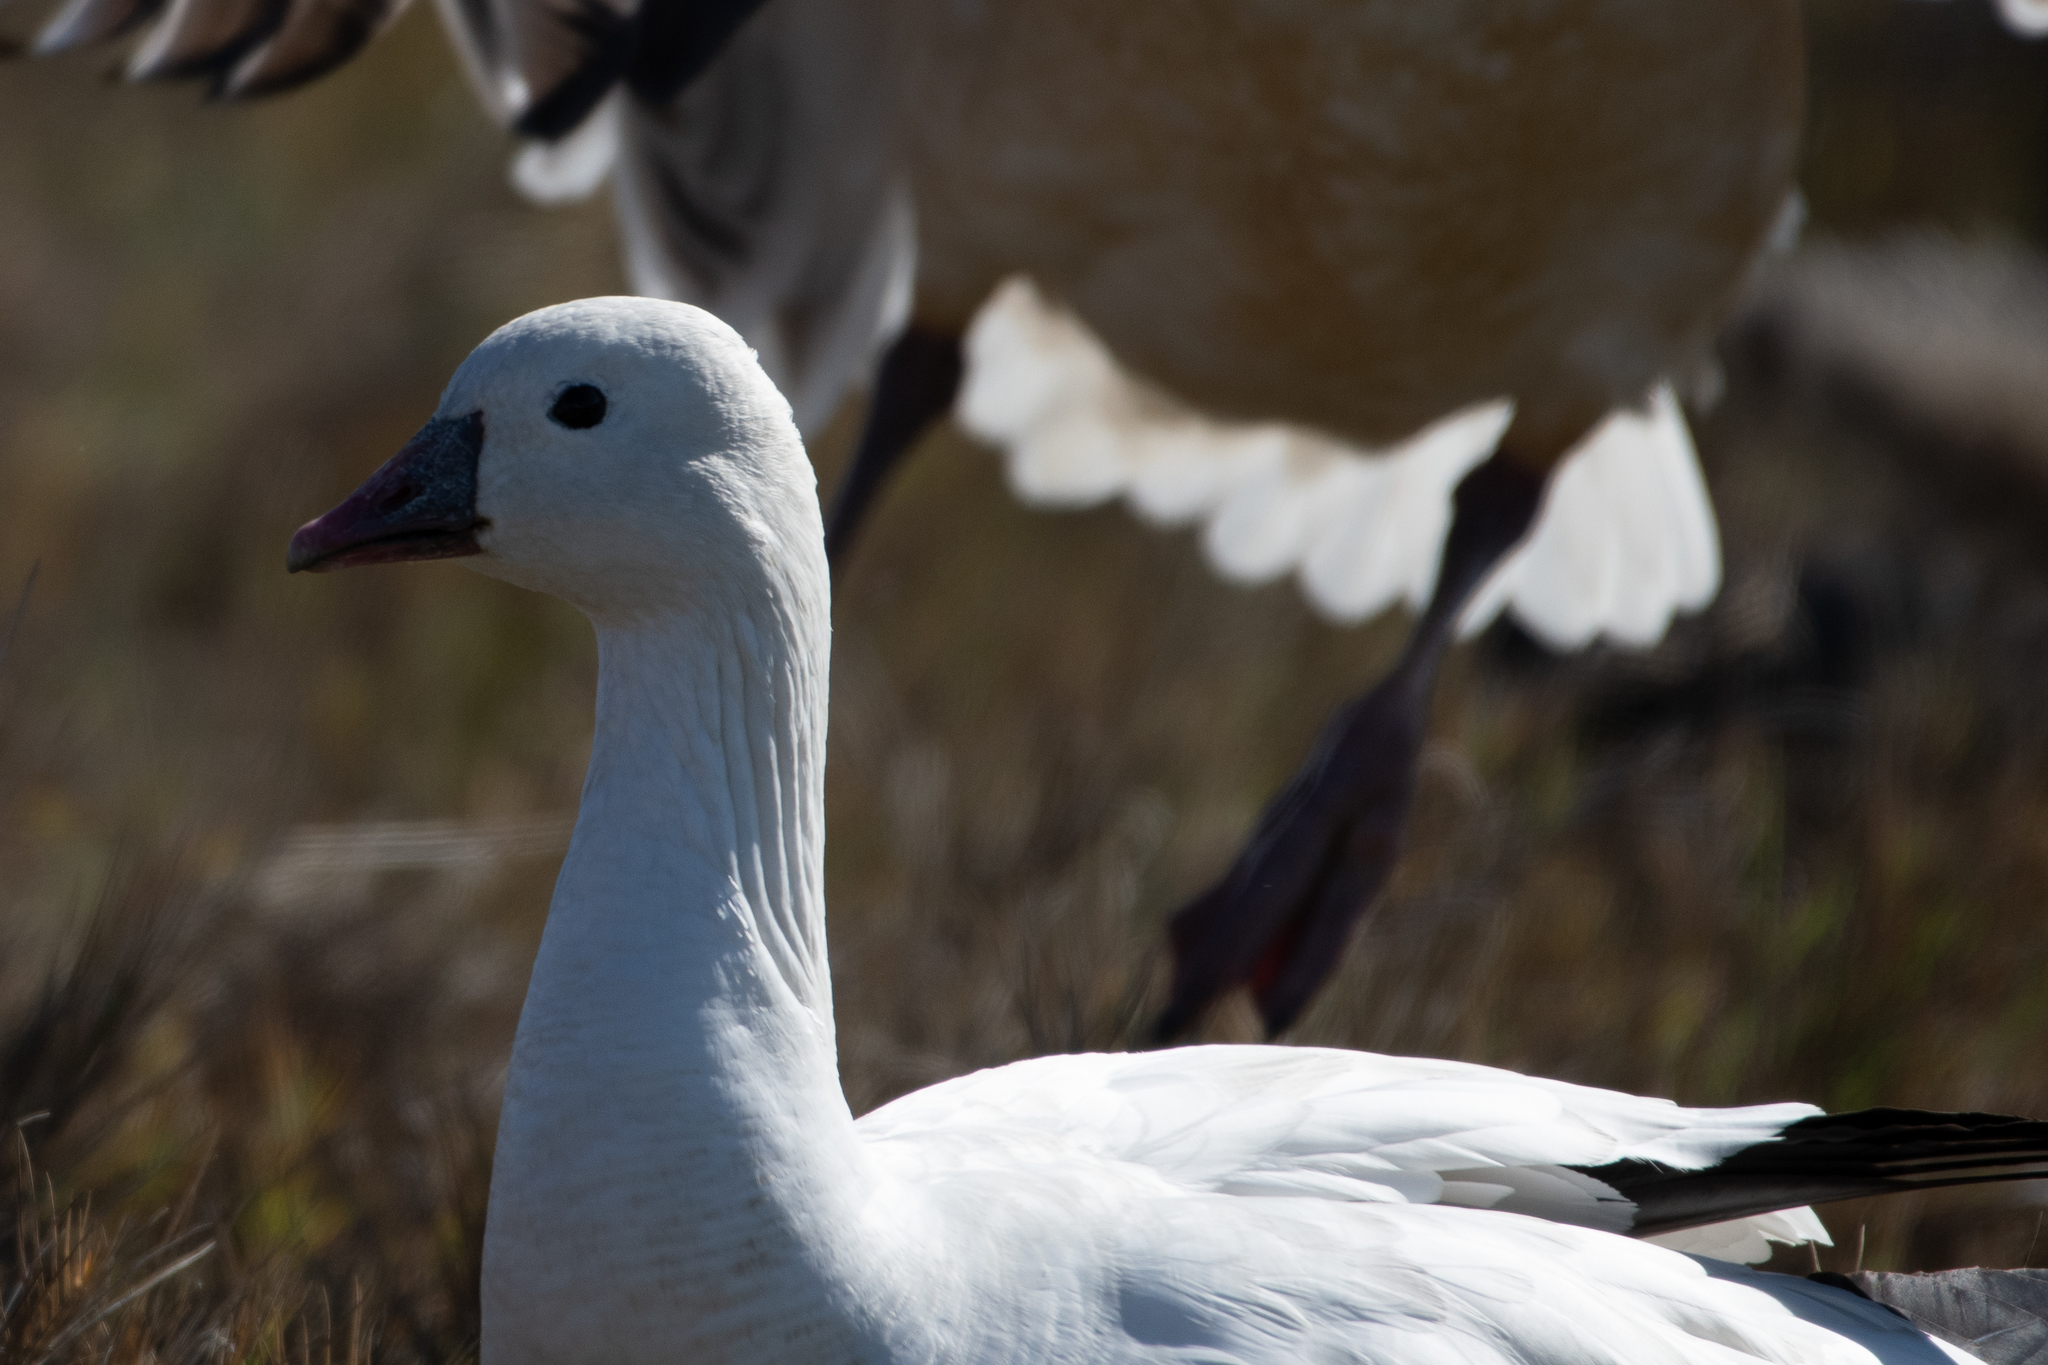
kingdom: Animalia
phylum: Chordata
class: Aves
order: Anseriformes
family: Anatidae
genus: Anser
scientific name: Anser rossii
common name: Ross's goose
